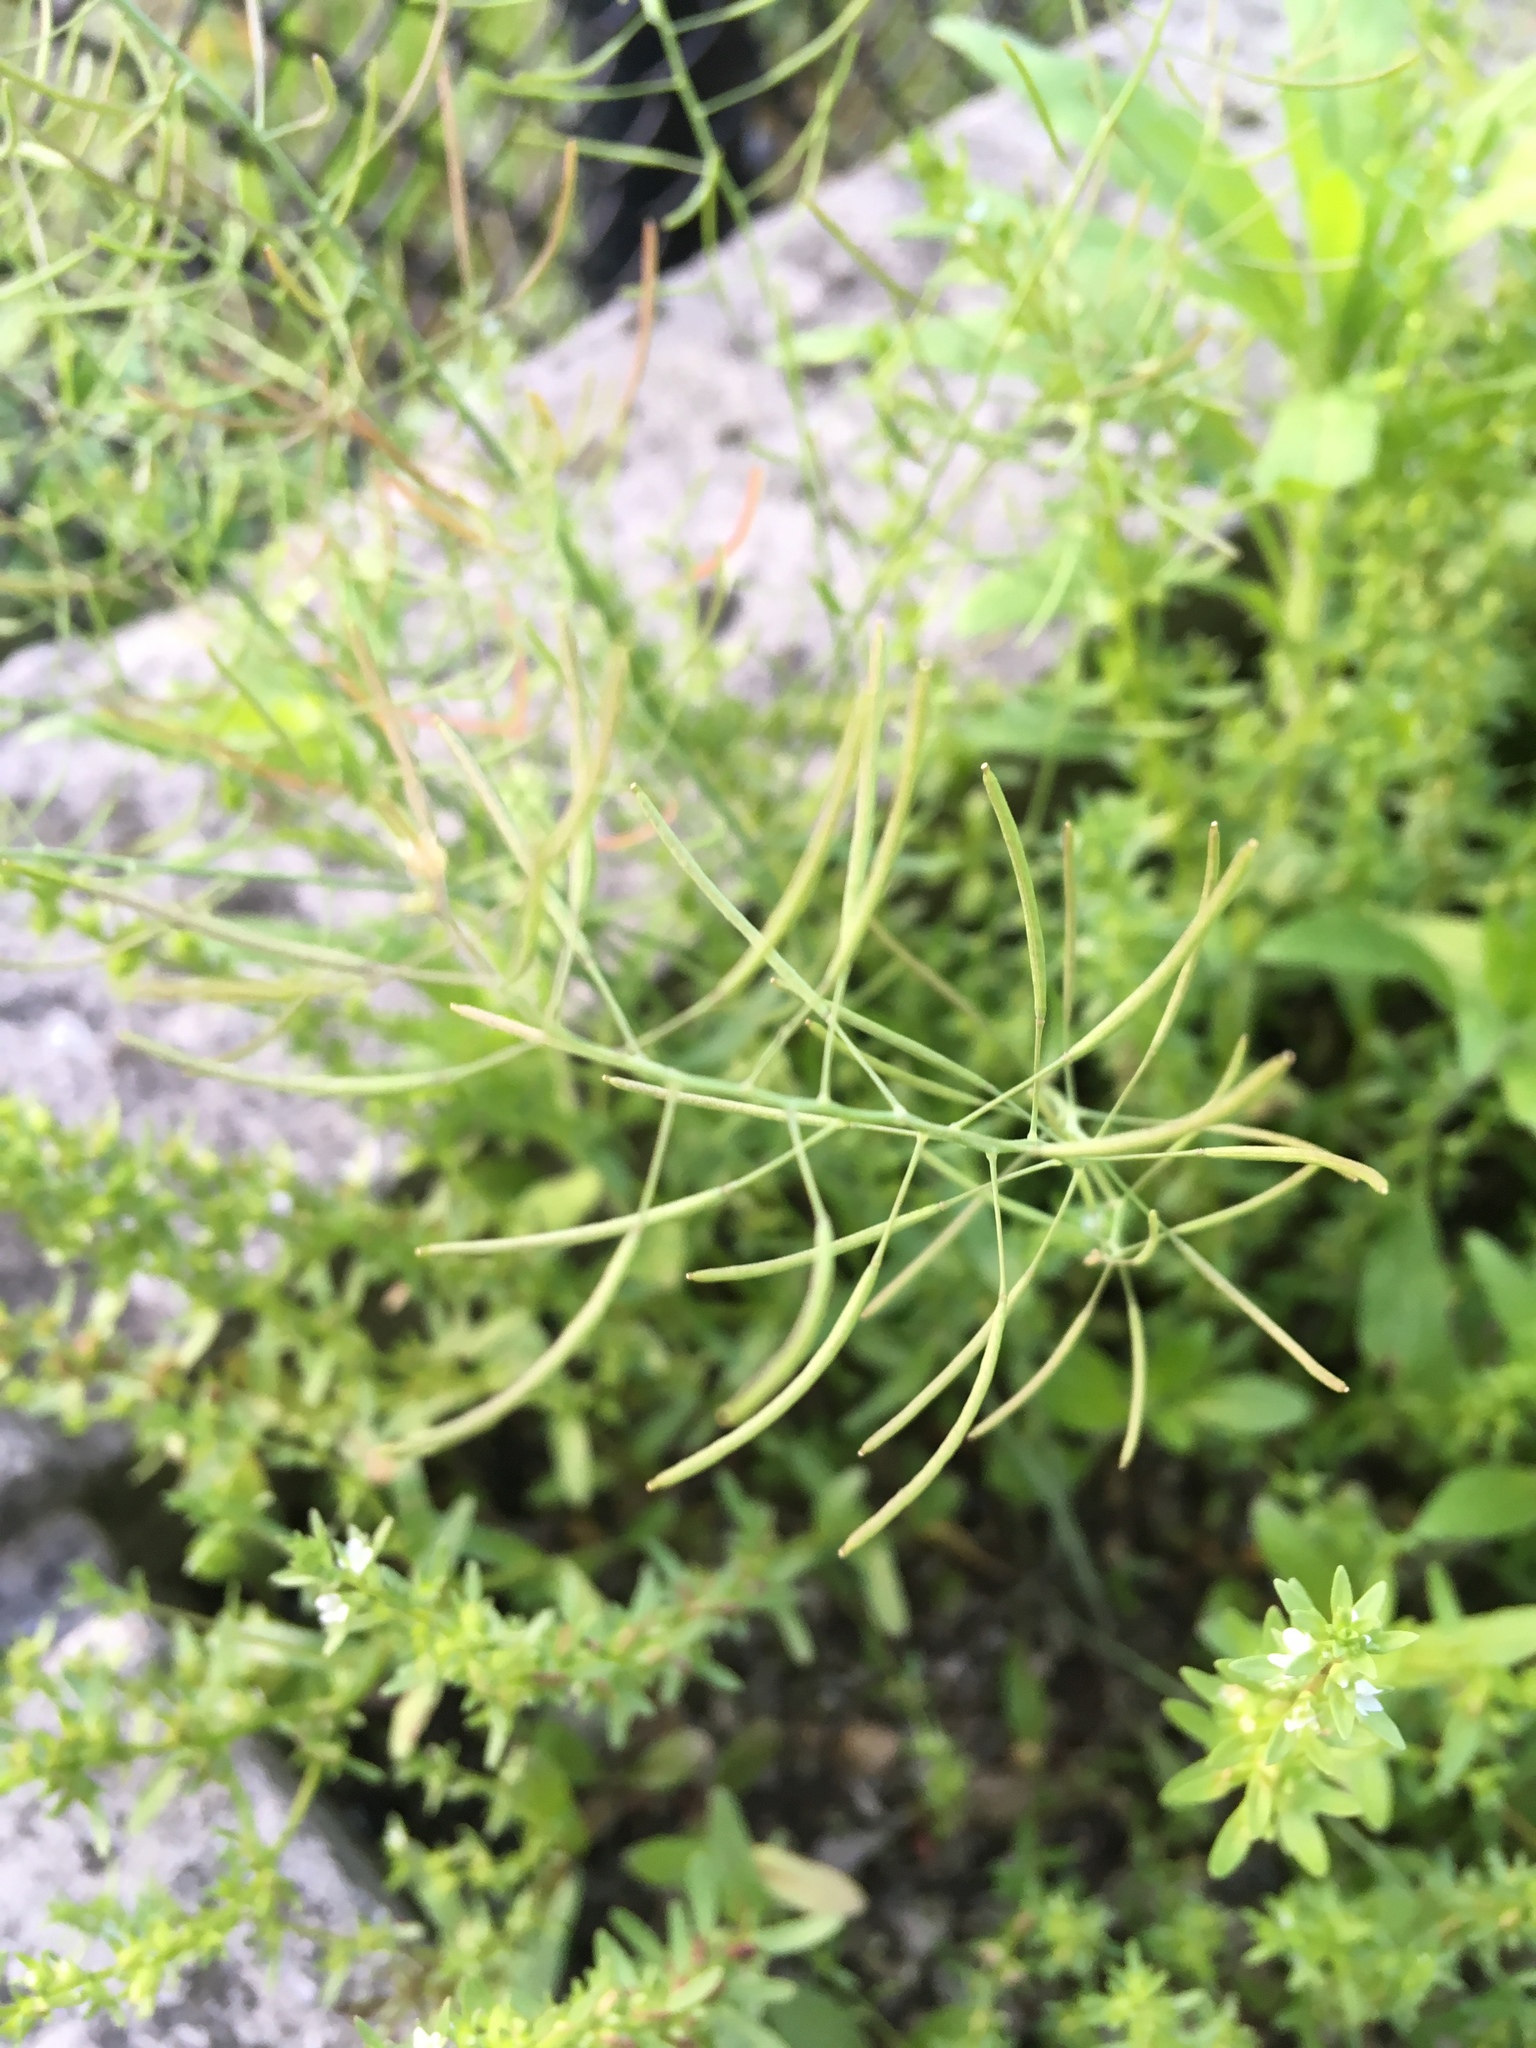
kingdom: Plantae
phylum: Tracheophyta
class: Magnoliopsida
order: Brassicales
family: Brassicaceae
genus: Arabidopsis
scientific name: Arabidopsis thaliana
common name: Thale cress
